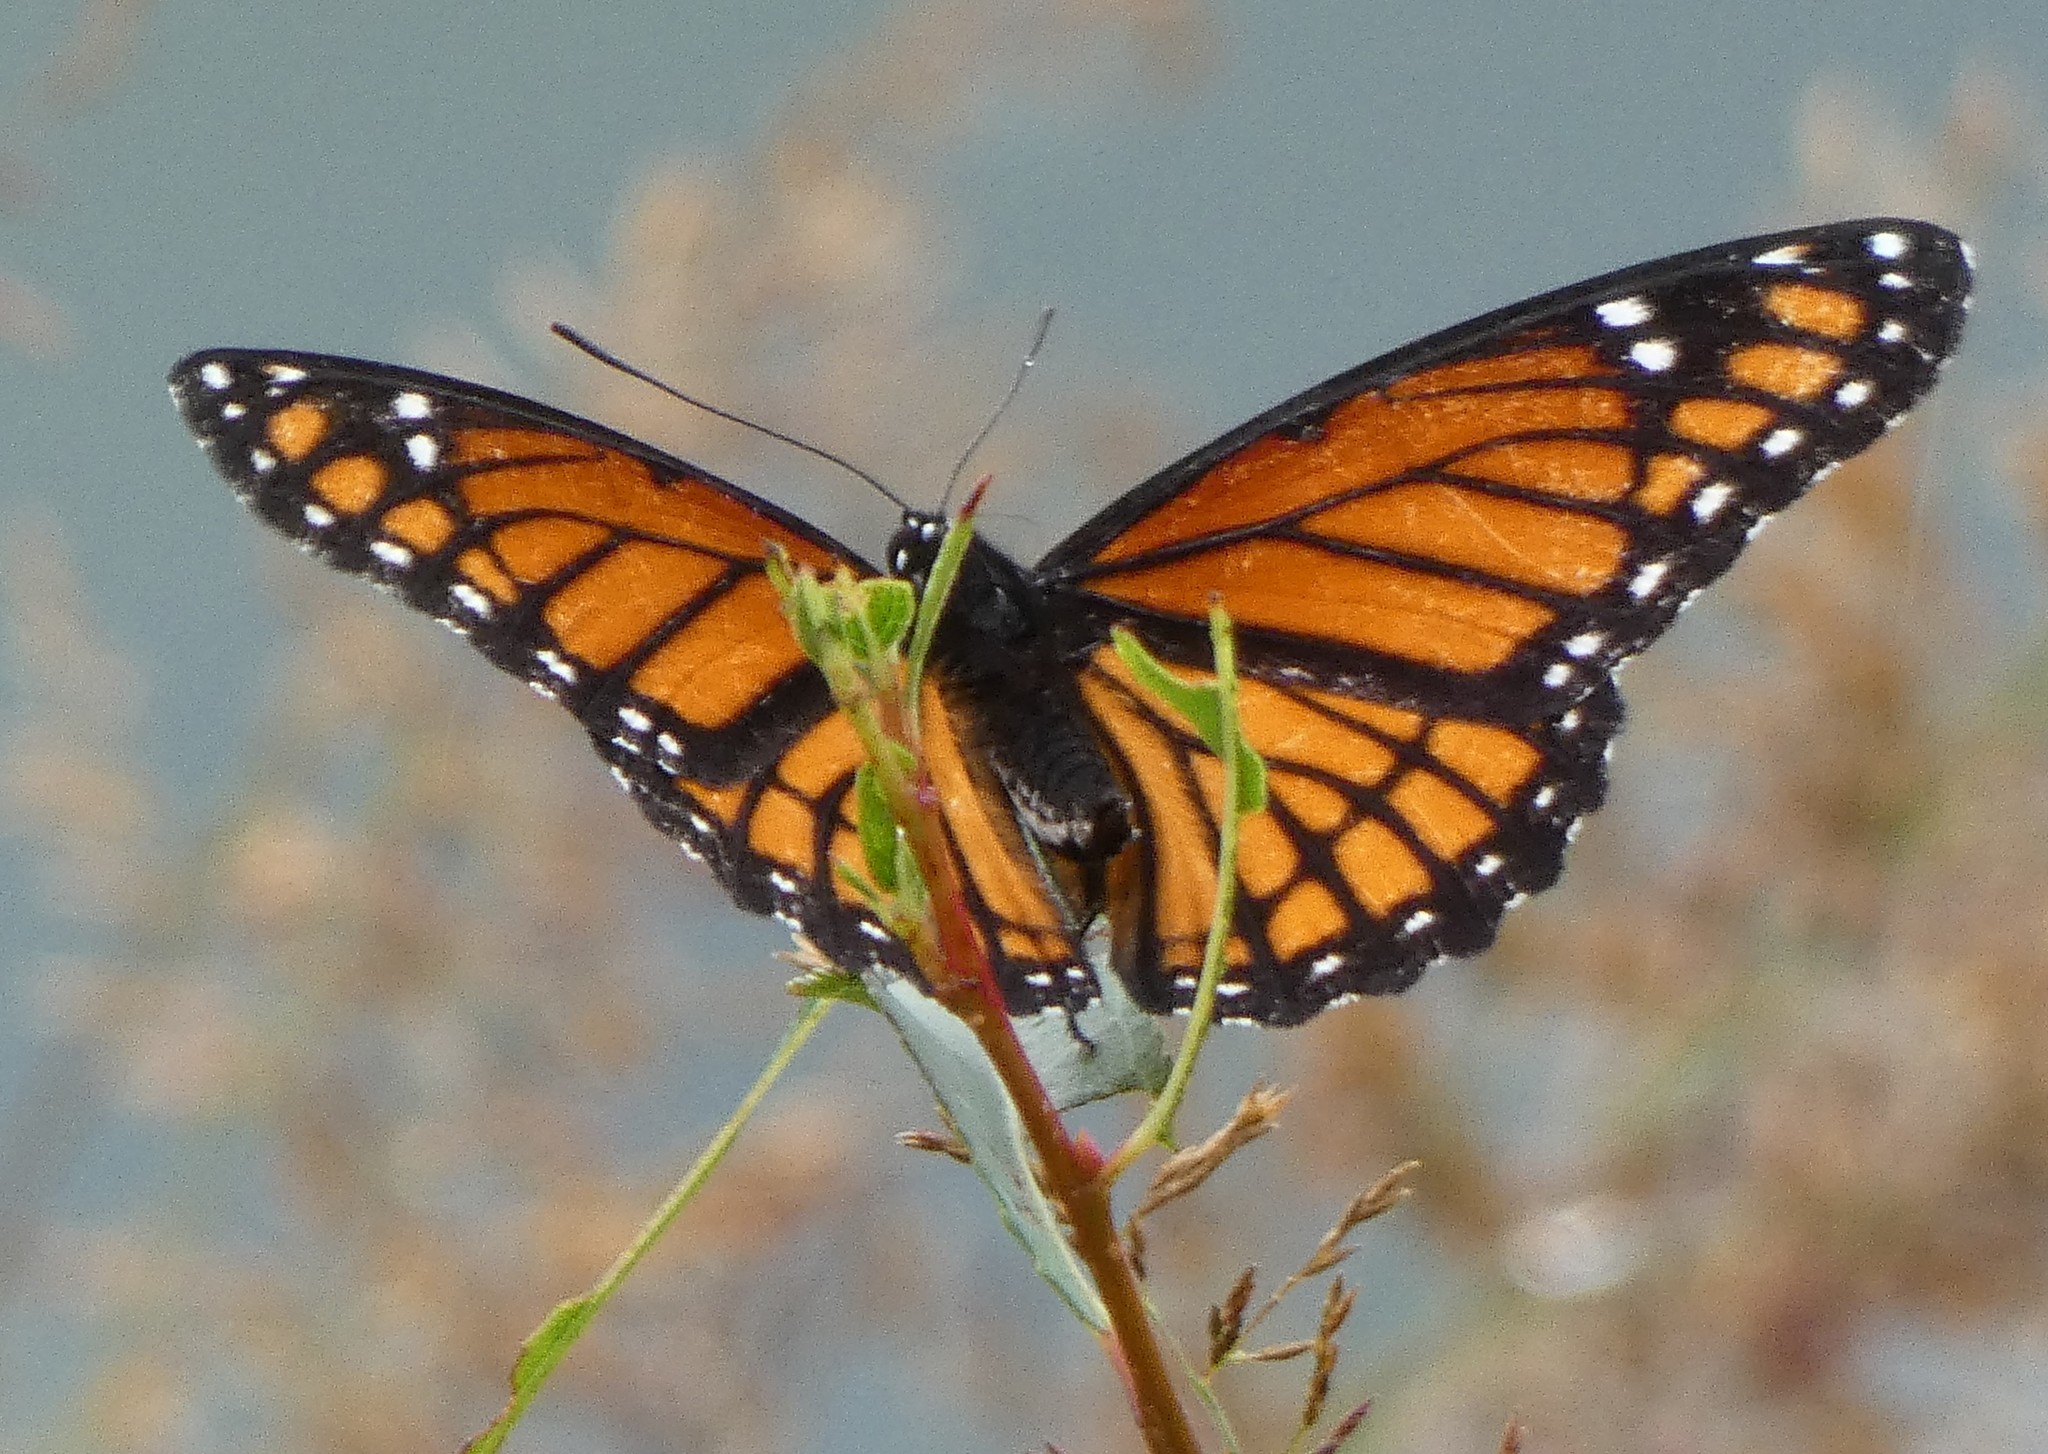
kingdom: Animalia
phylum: Arthropoda
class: Insecta
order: Lepidoptera
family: Nymphalidae
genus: Limenitis
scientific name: Limenitis archippus
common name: Viceroy
